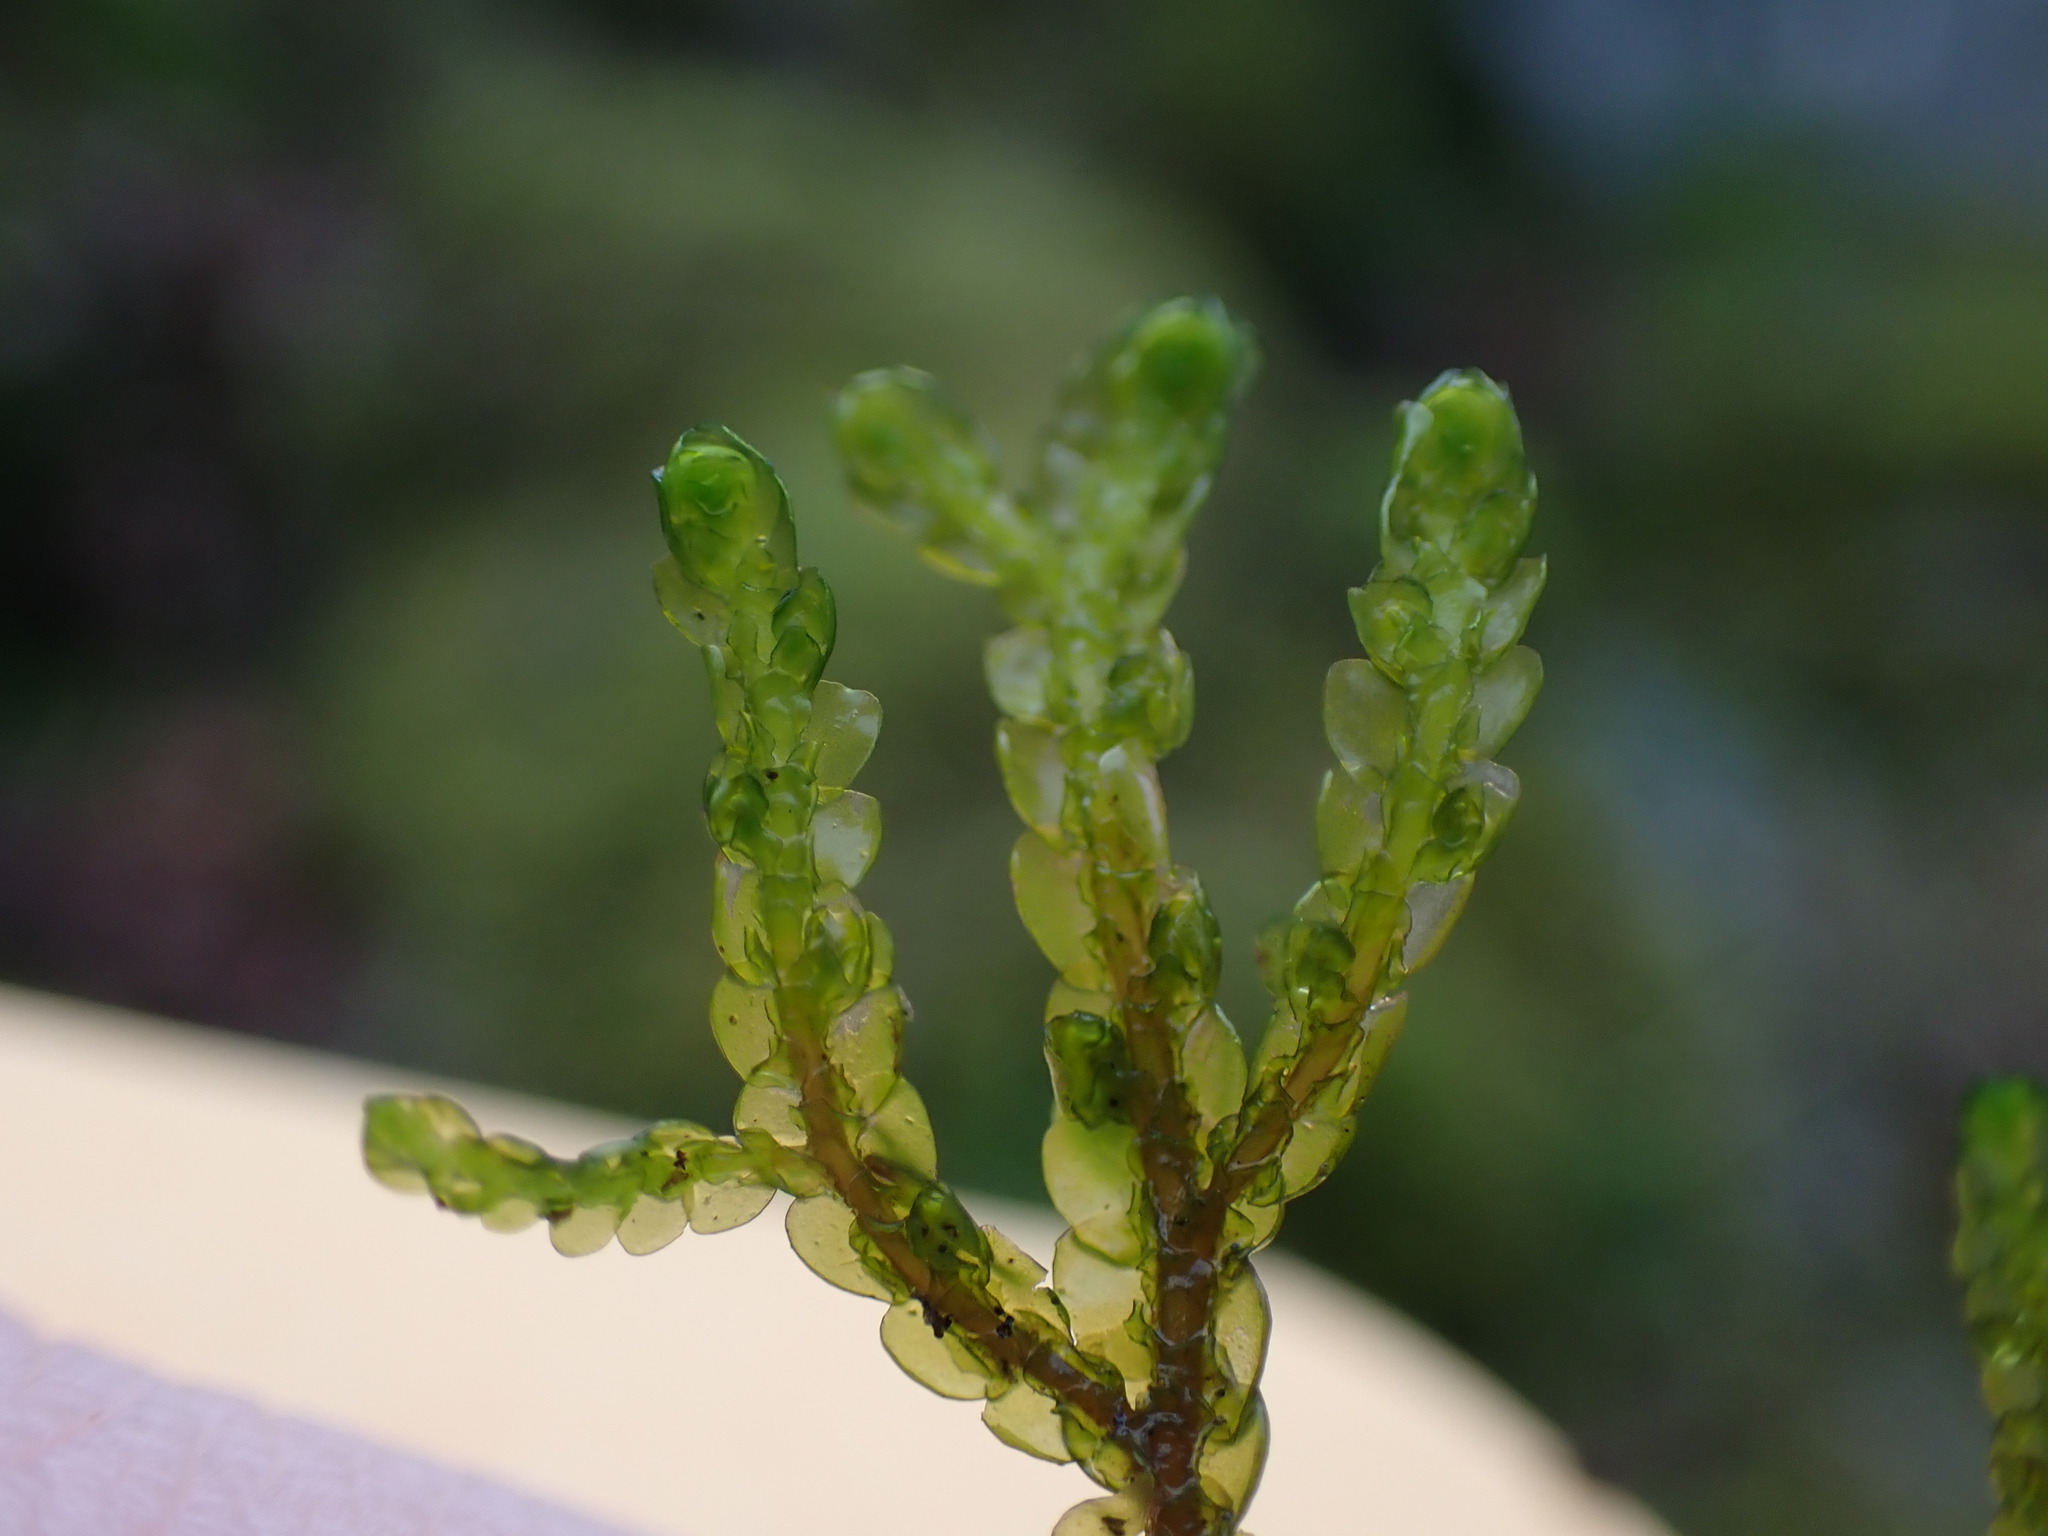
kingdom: Plantae
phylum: Marchantiophyta
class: Jungermanniopsida
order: Porellales
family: Porellaceae
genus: Porella
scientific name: Porella roellii
